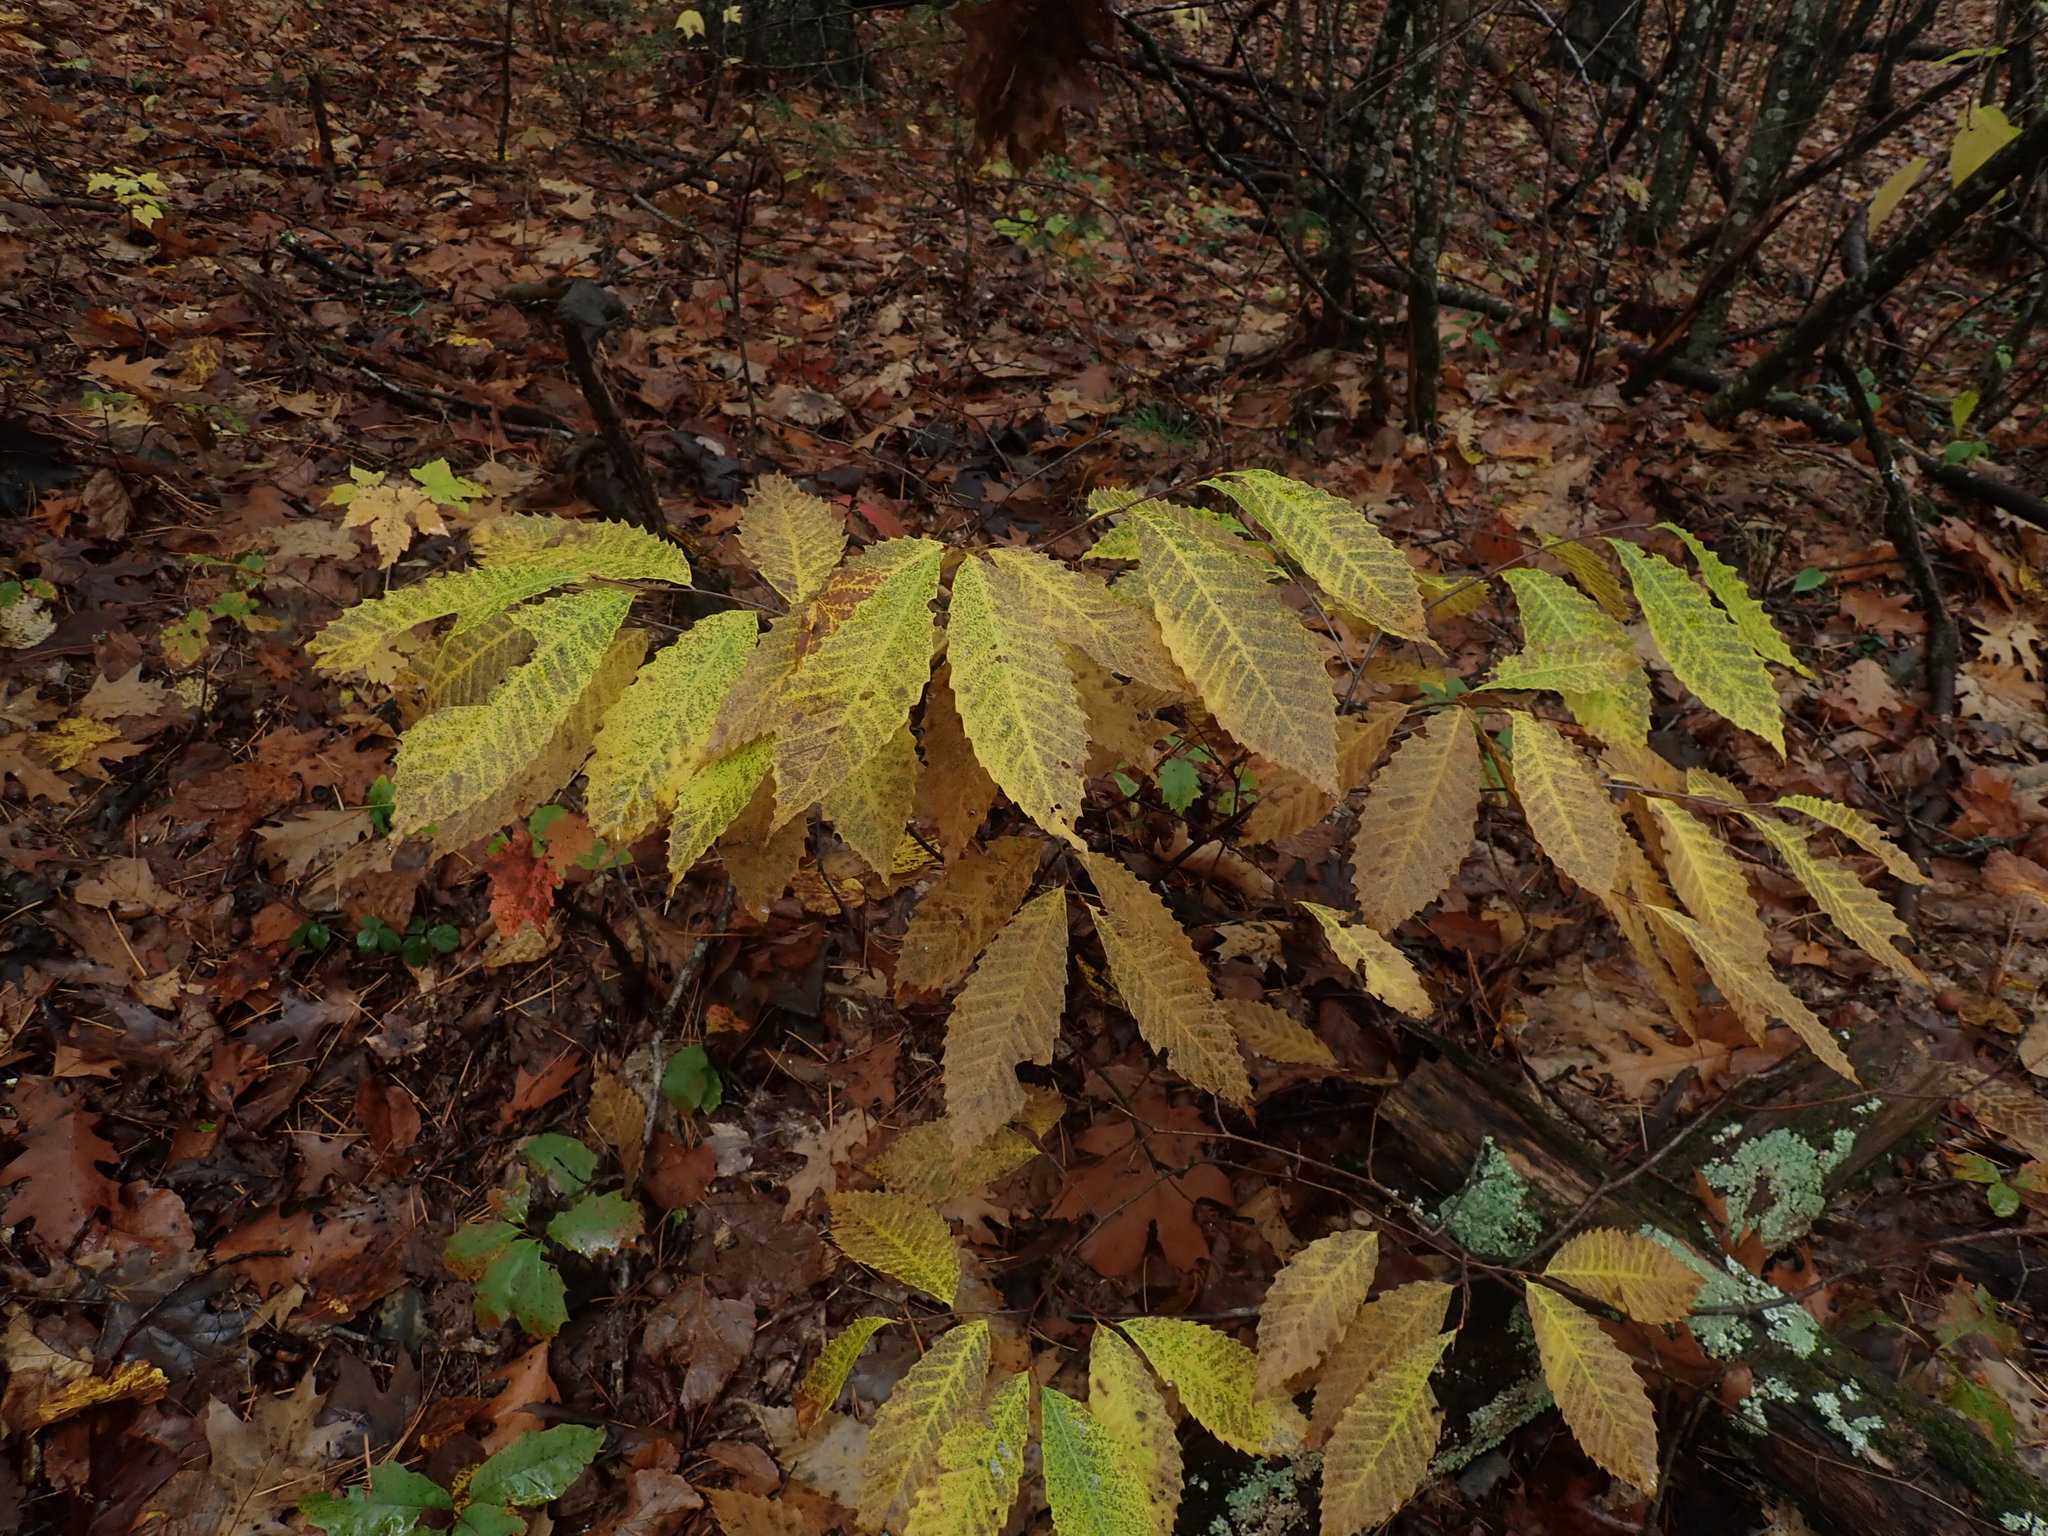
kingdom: Plantae
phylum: Tracheophyta
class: Magnoliopsida
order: Fagales
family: Fagaceae
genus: Castanea
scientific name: Castanea dentata
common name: American chestnut
